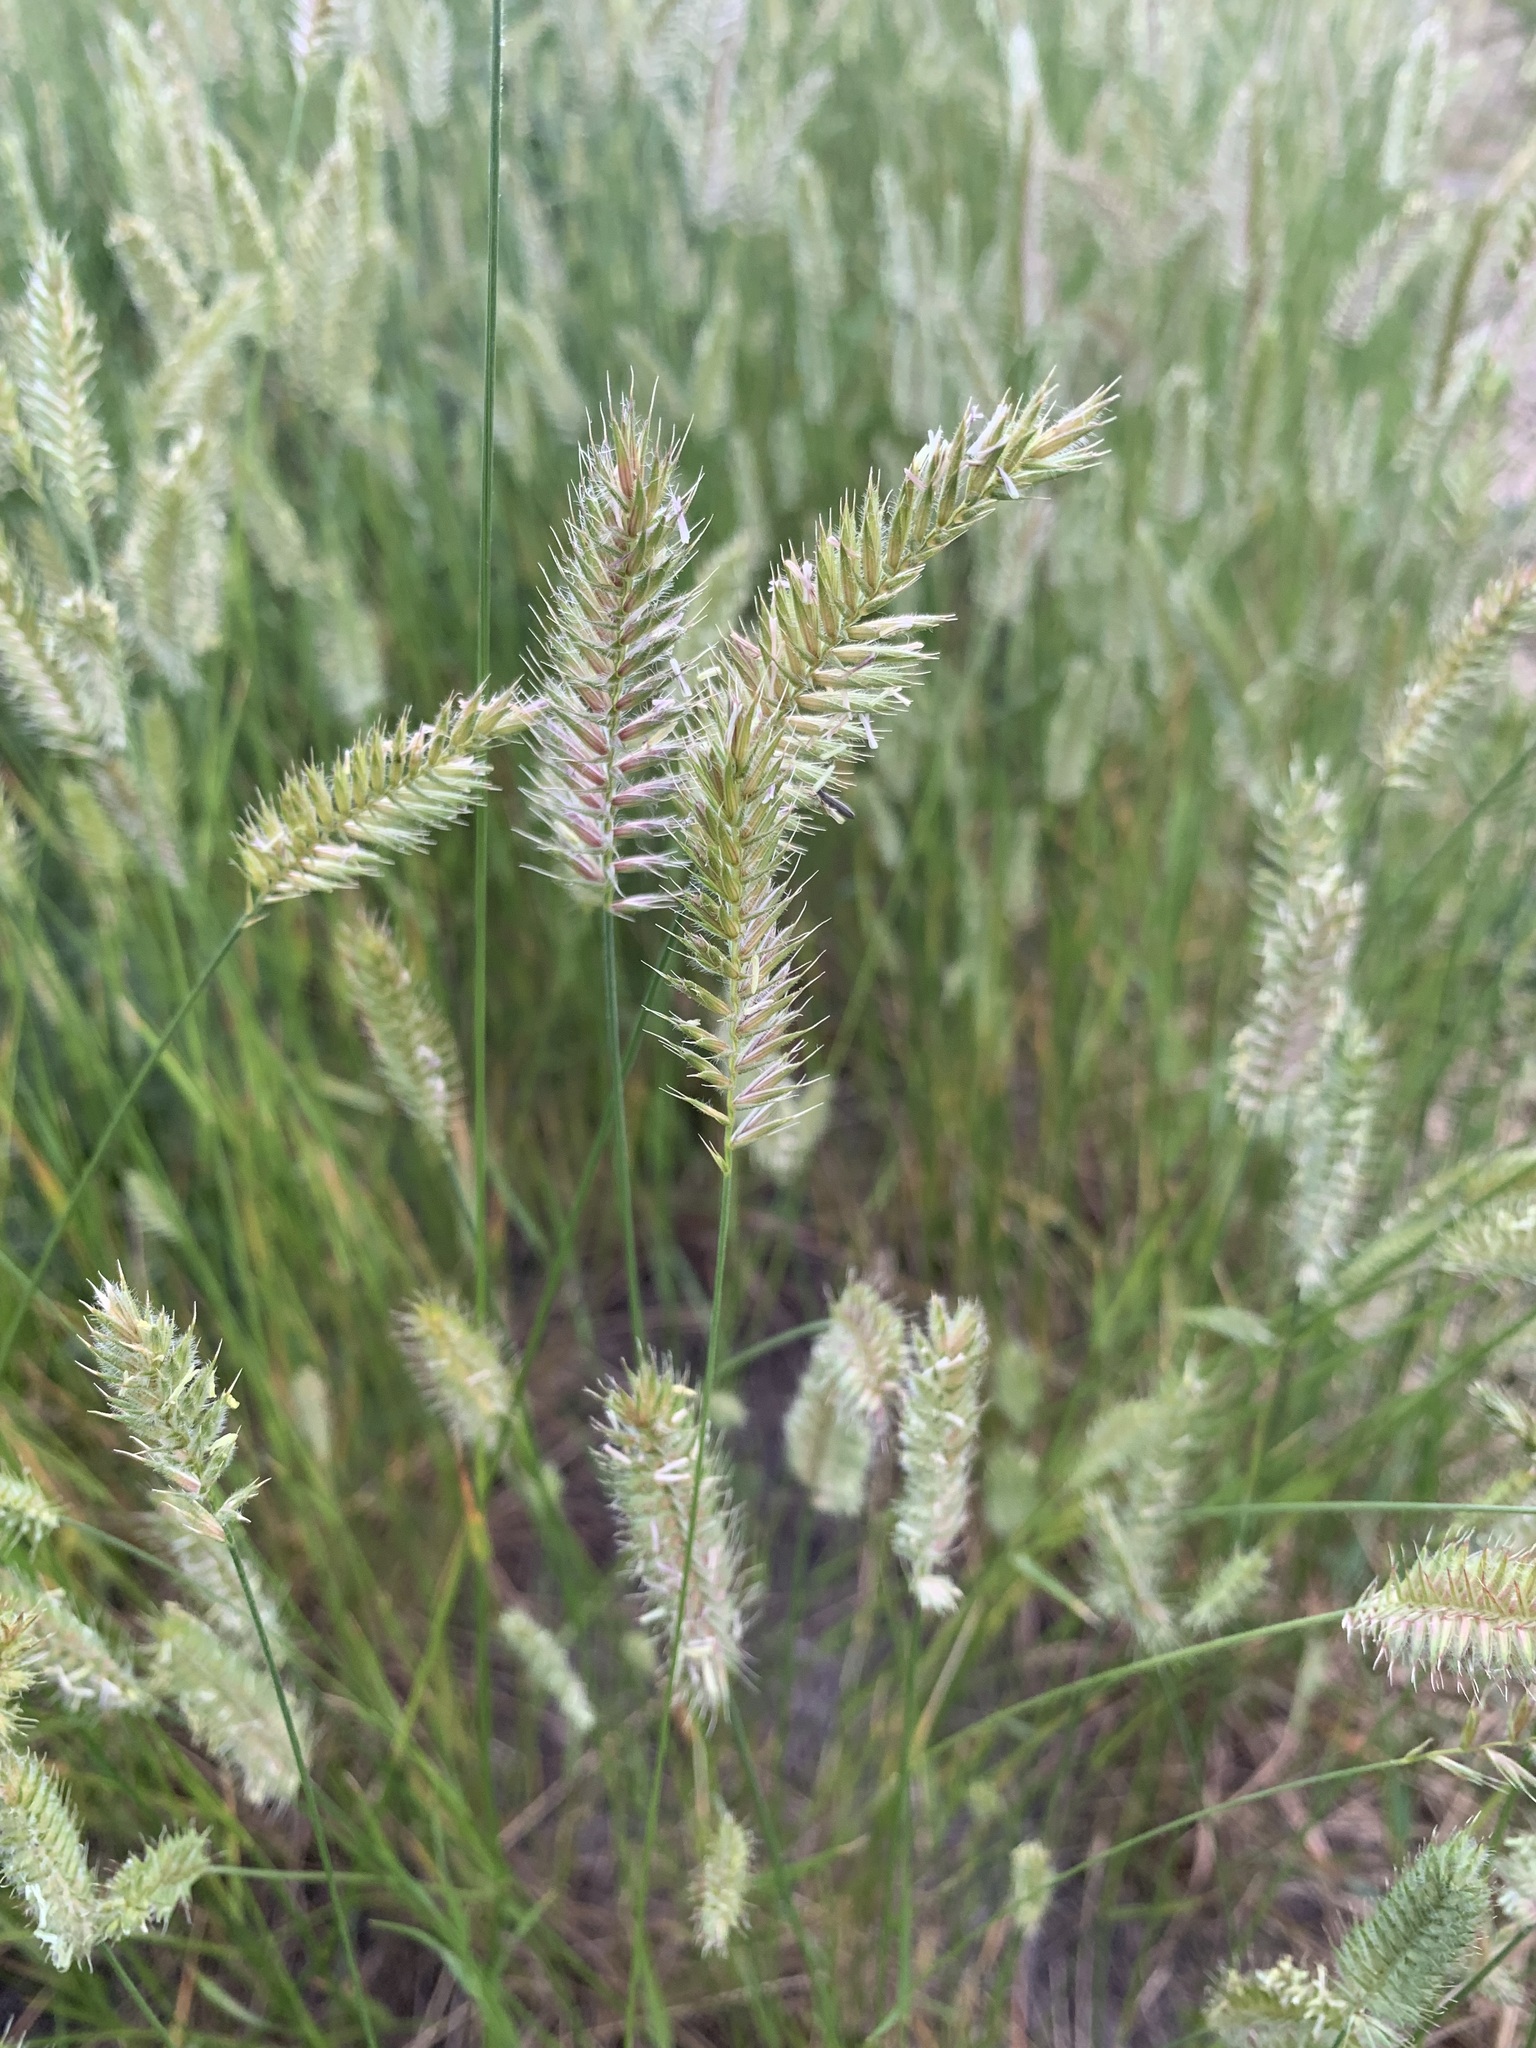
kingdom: Plantae
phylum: Tracheophyta
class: Liliopsida
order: Poales
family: Poaceae
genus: Agropyron
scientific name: Agropyron cristatum
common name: Crested wheatgrass
